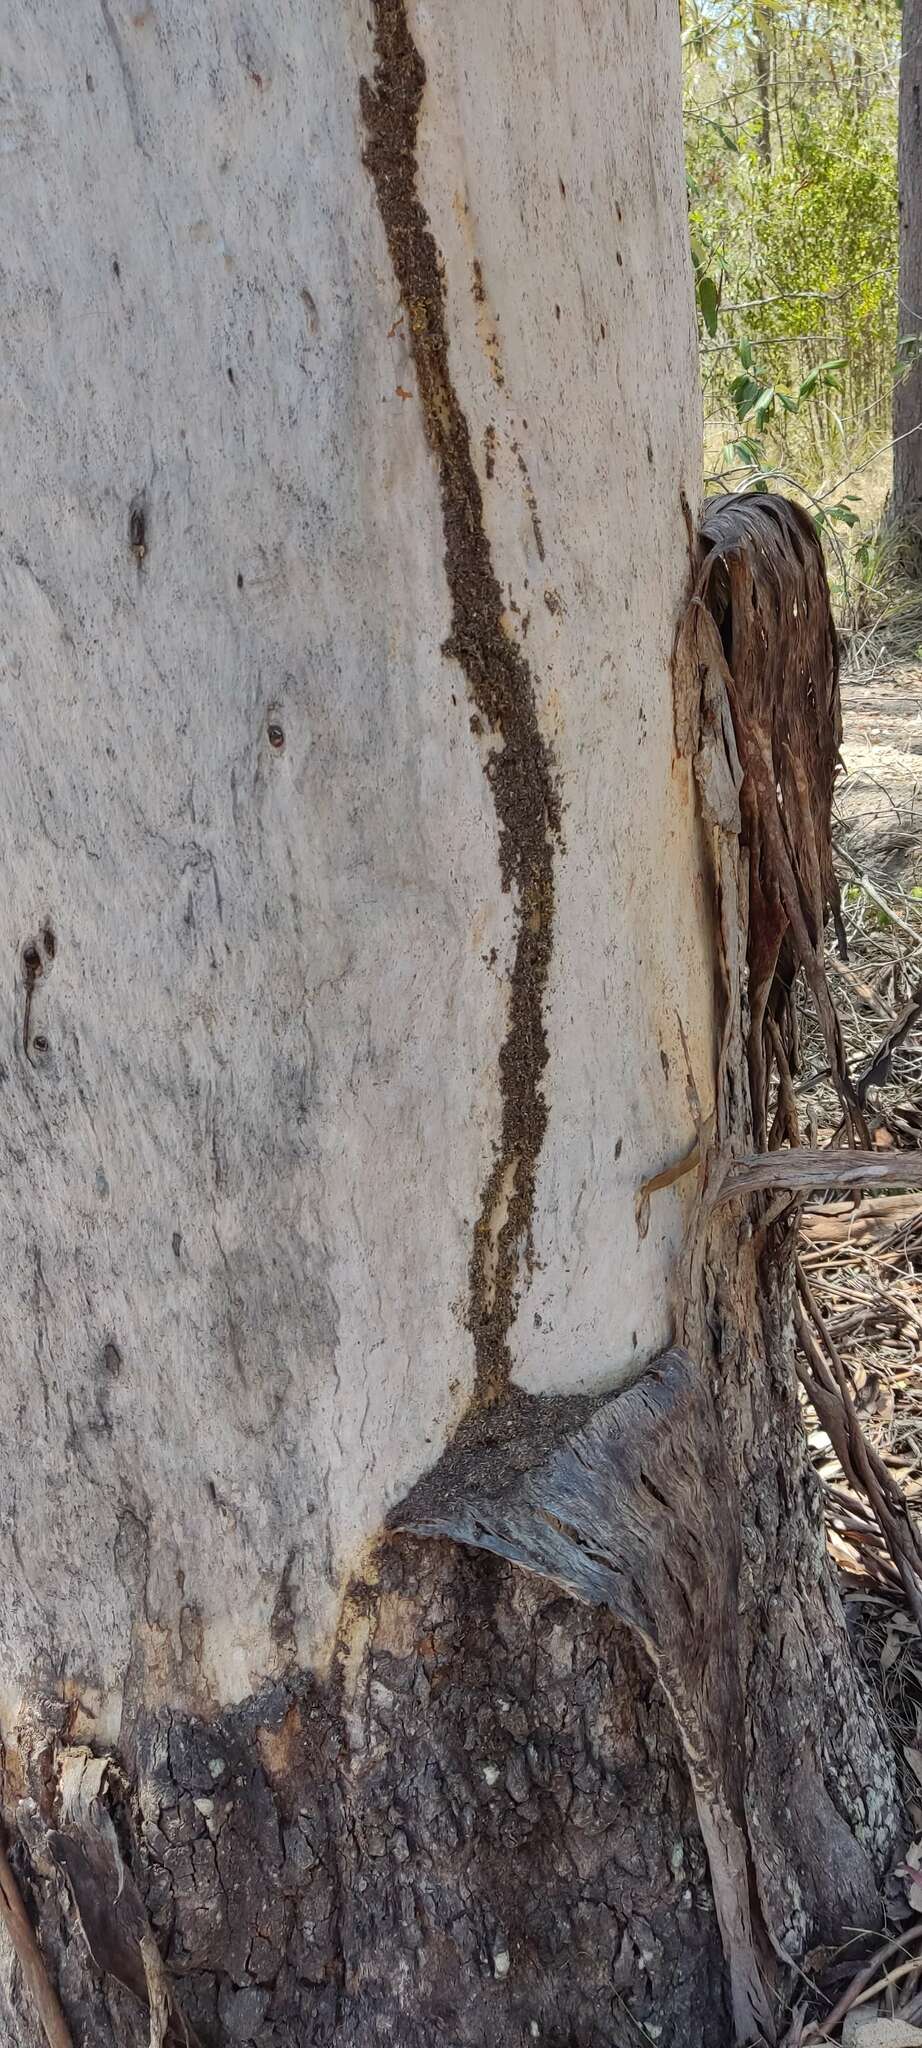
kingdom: Animalia
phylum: Arthropoda
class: Insecta
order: Hymenoptera
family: Formicidae
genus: Papyrius
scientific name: Papyrius nitidus
